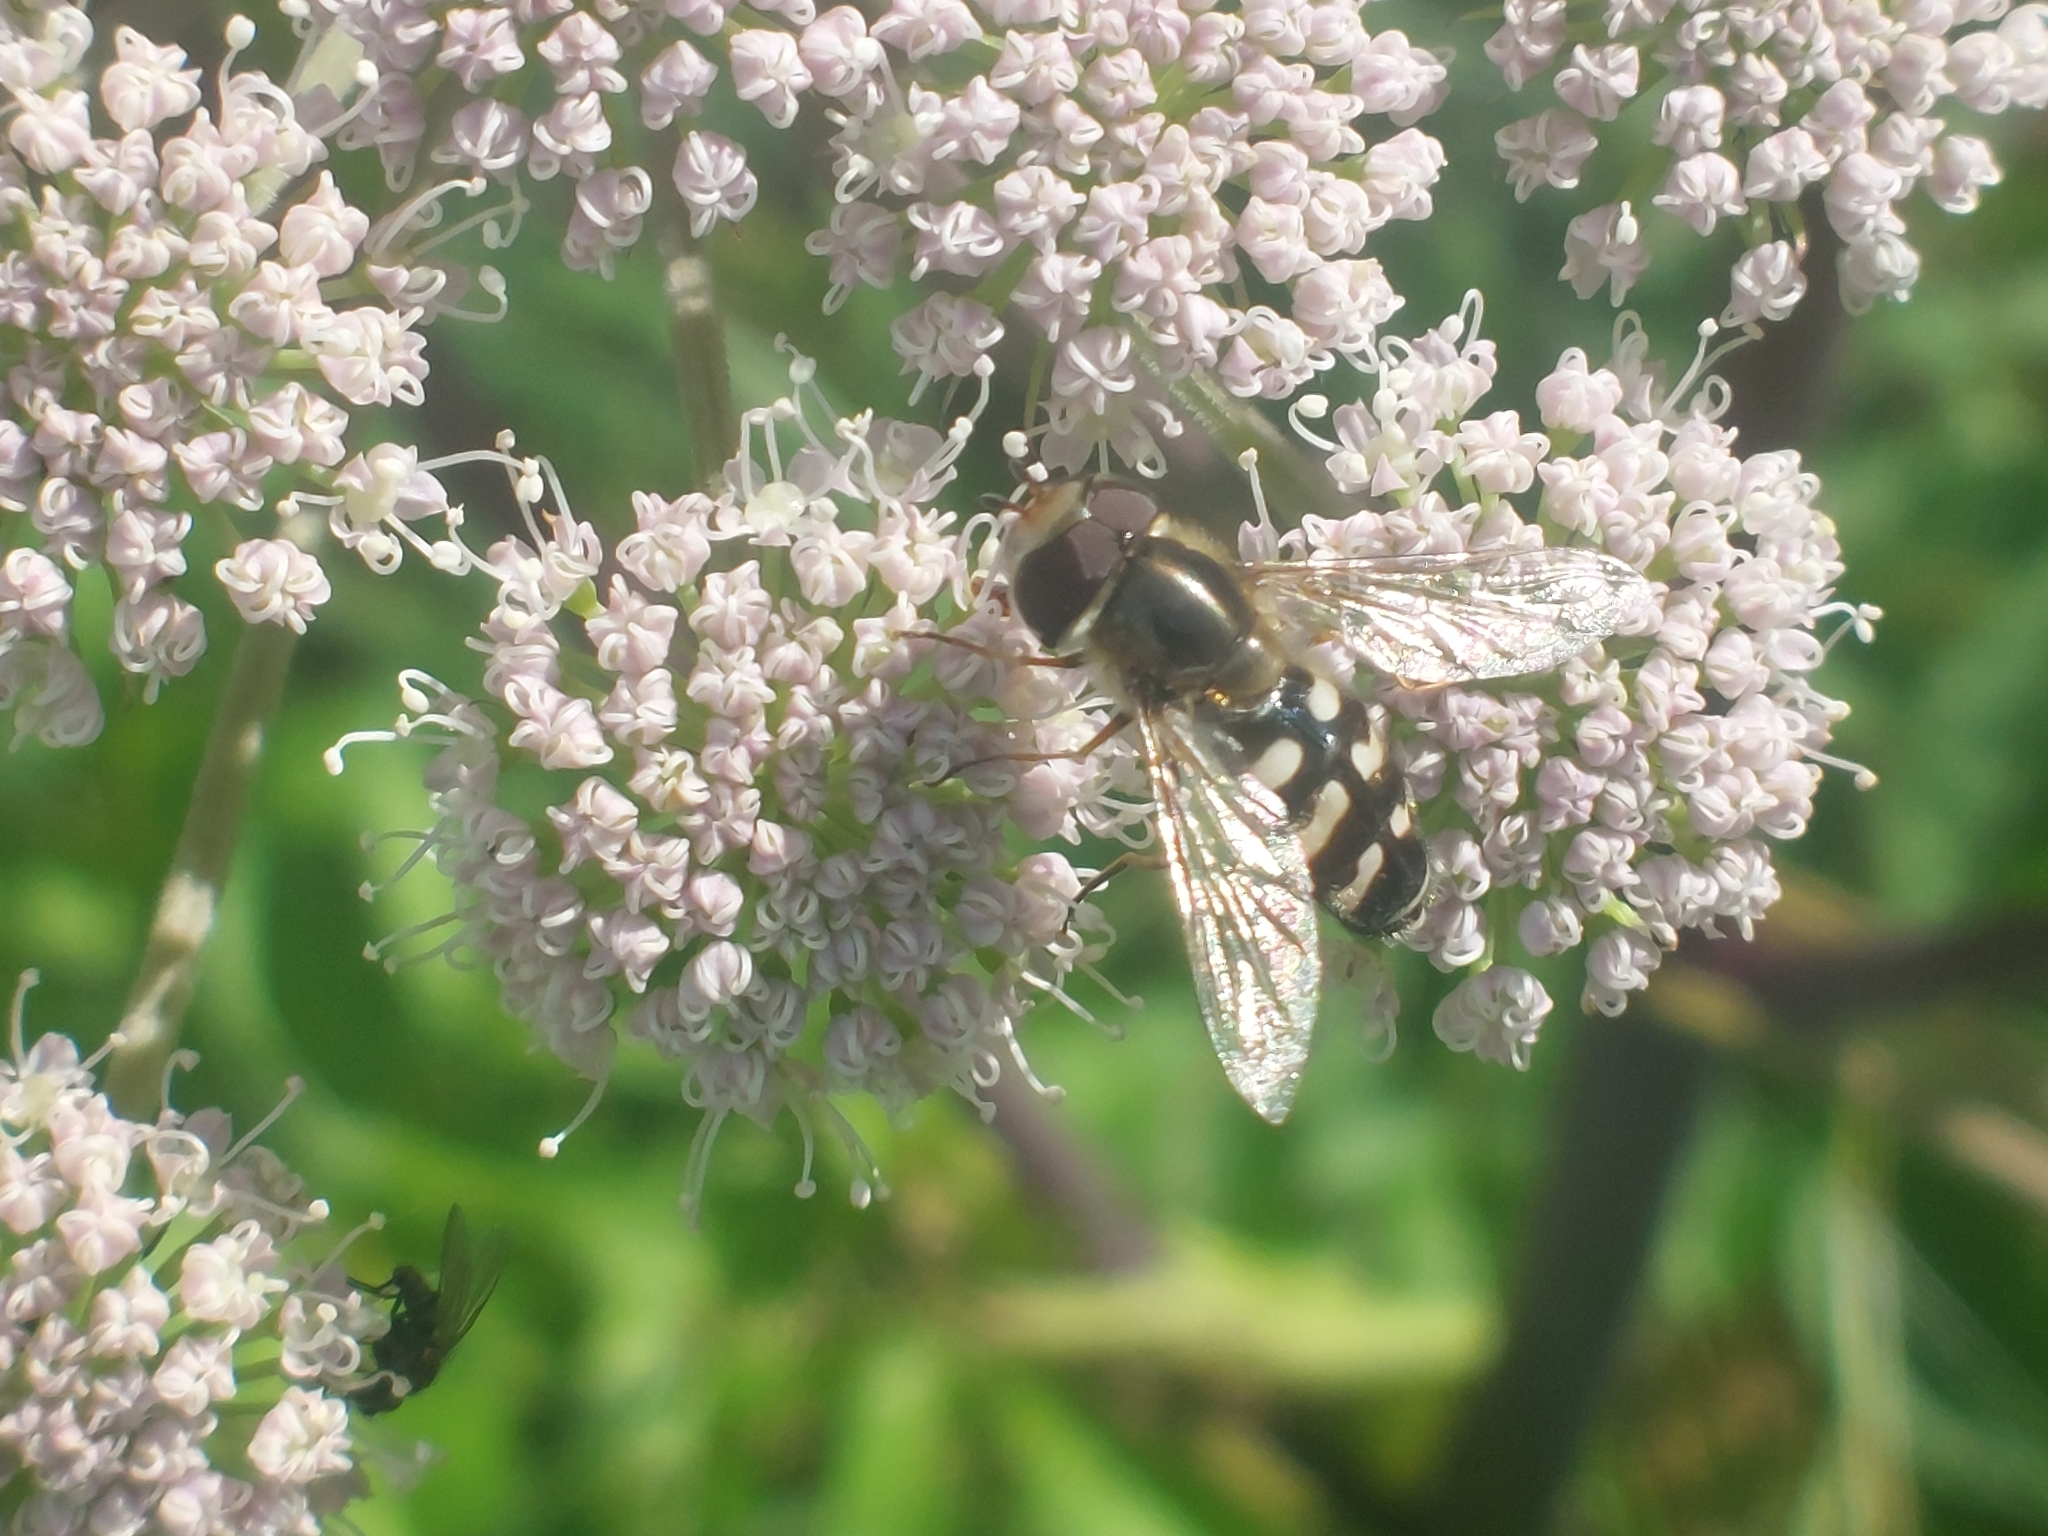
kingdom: Animalia
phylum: Arthropoda
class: Insecta
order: Diptera
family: Syrphidae
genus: Scaeva
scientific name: Scaeva pyrastri
